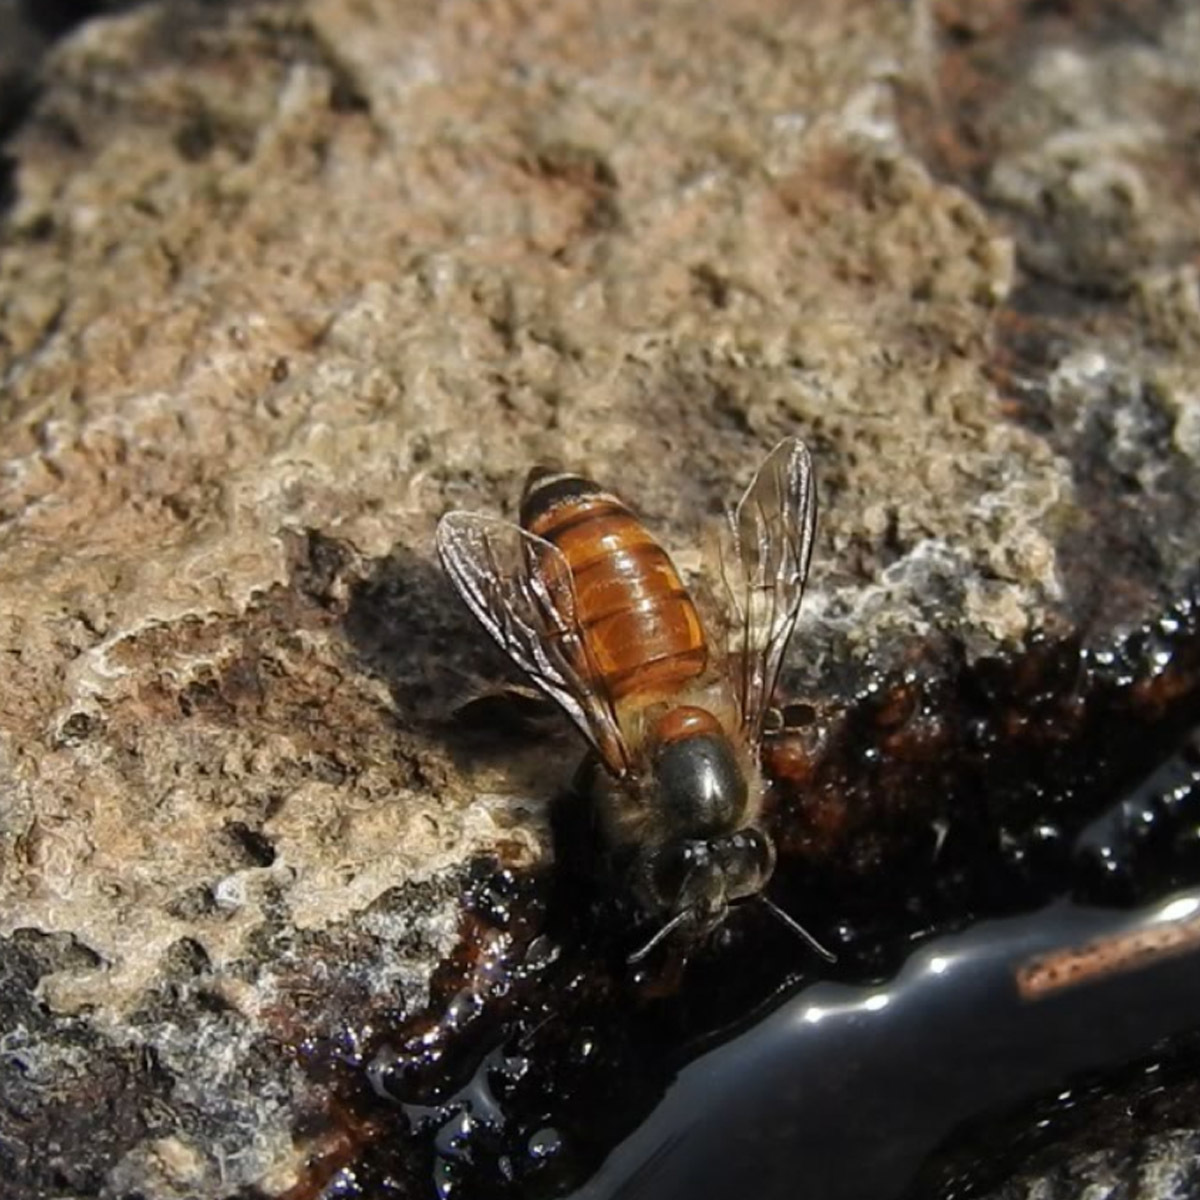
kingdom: Animalia
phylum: Arthropoda
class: Insecta
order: Hymenoptera
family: Apidae
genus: Apis
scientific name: Apis cerana
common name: Honey bee
